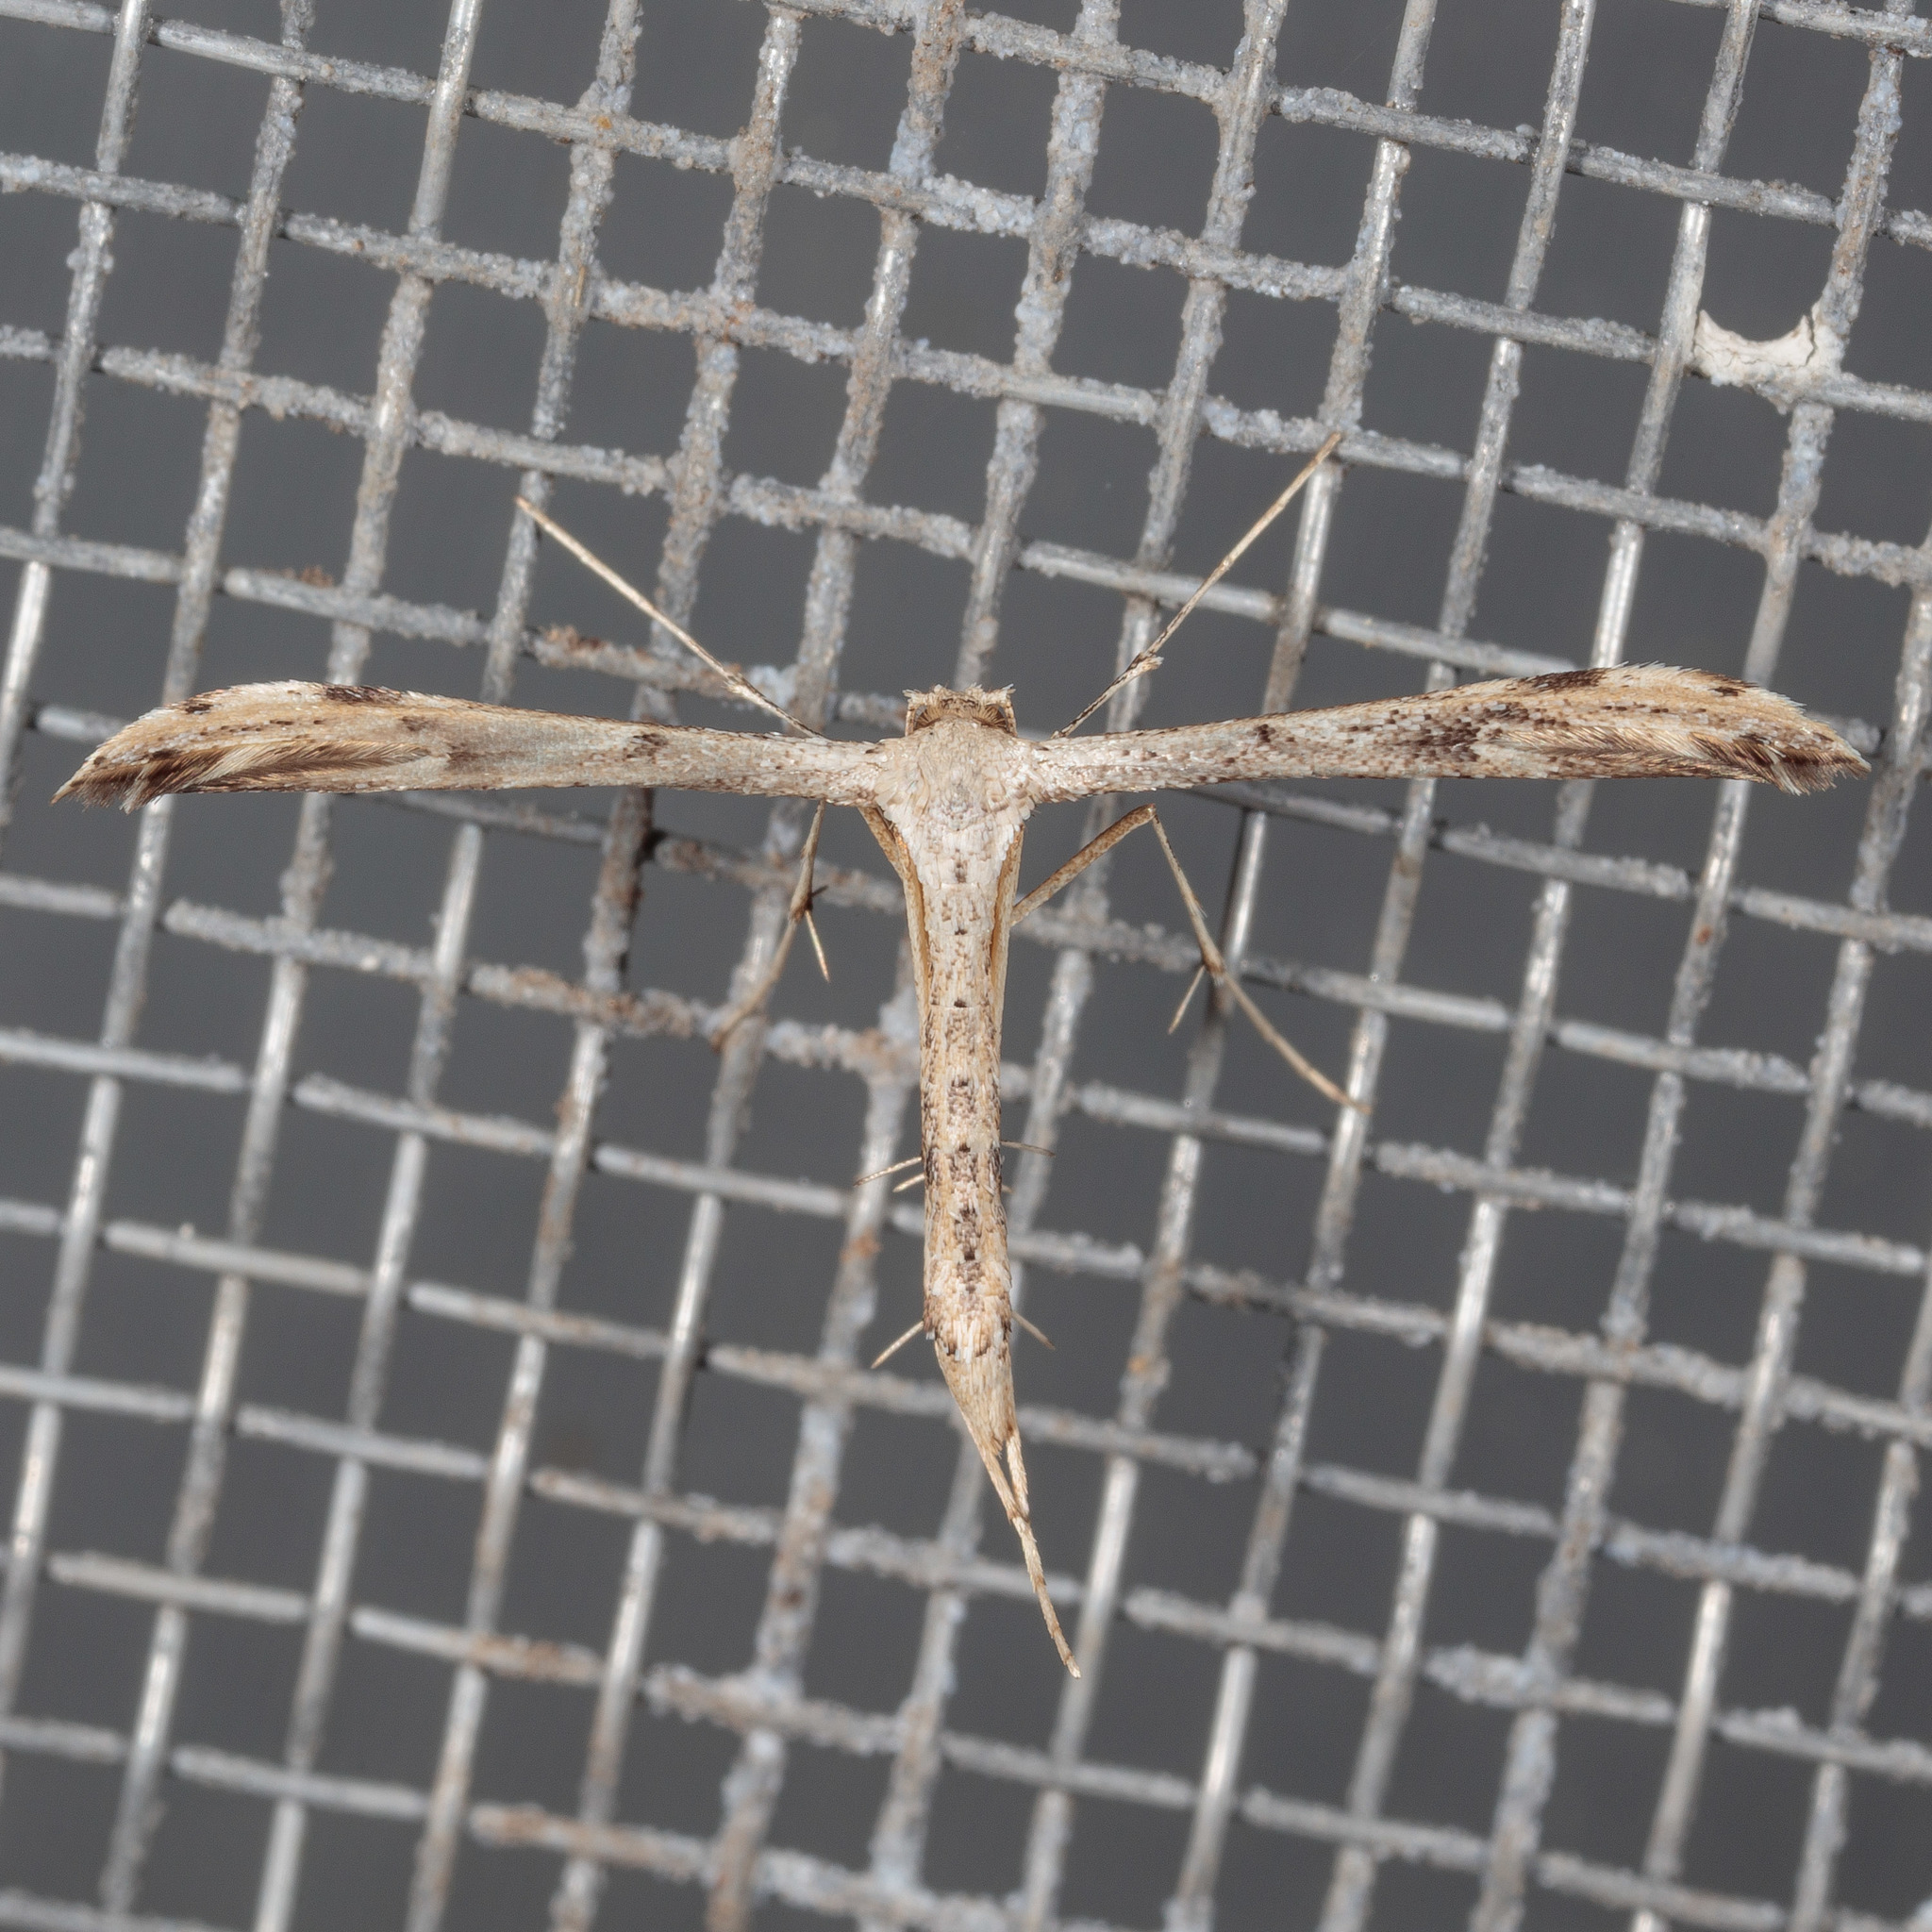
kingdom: Animalia
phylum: Arthropoda
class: Insecta
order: Lepidoptera
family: Pterophoridae
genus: Adaina
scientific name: Adaina ambrosiae
